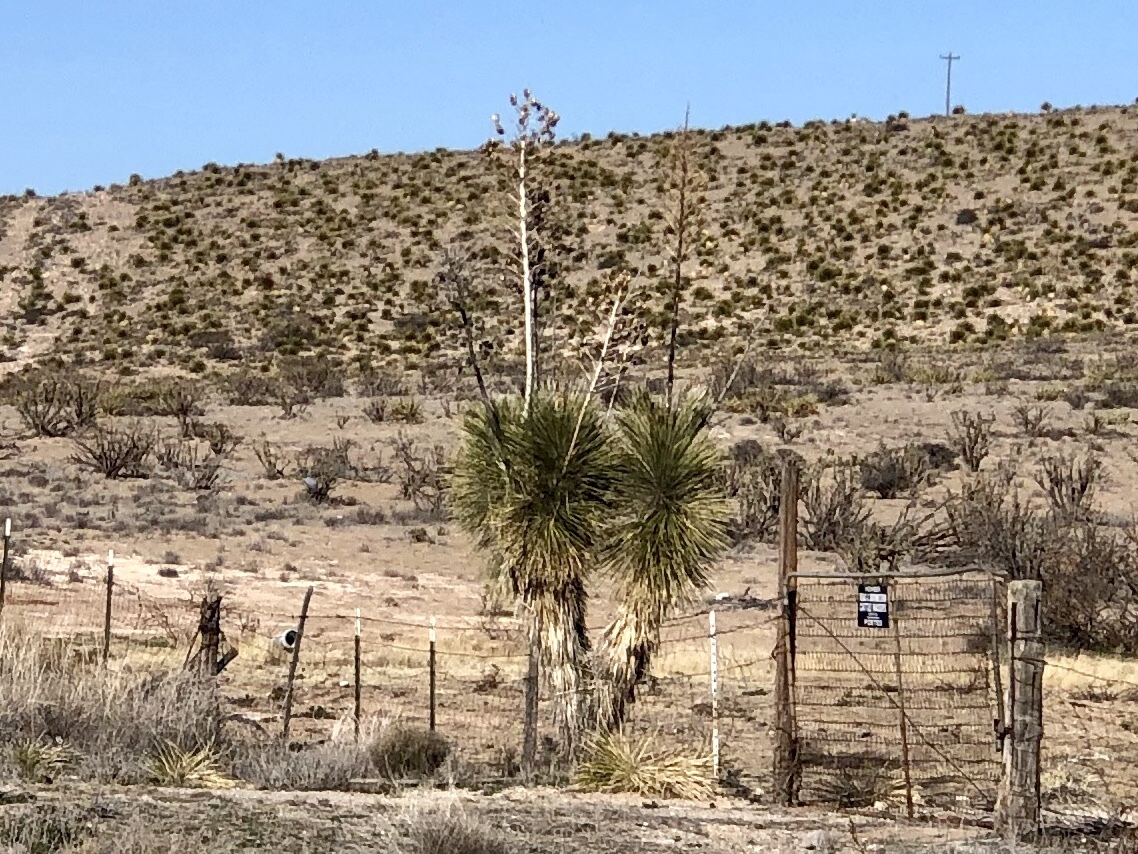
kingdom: Plantae
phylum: Tracheophyta
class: Liliopsida
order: Asparagales
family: Asparagaceae
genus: Yucca
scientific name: Yucca elata
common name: Palmella
